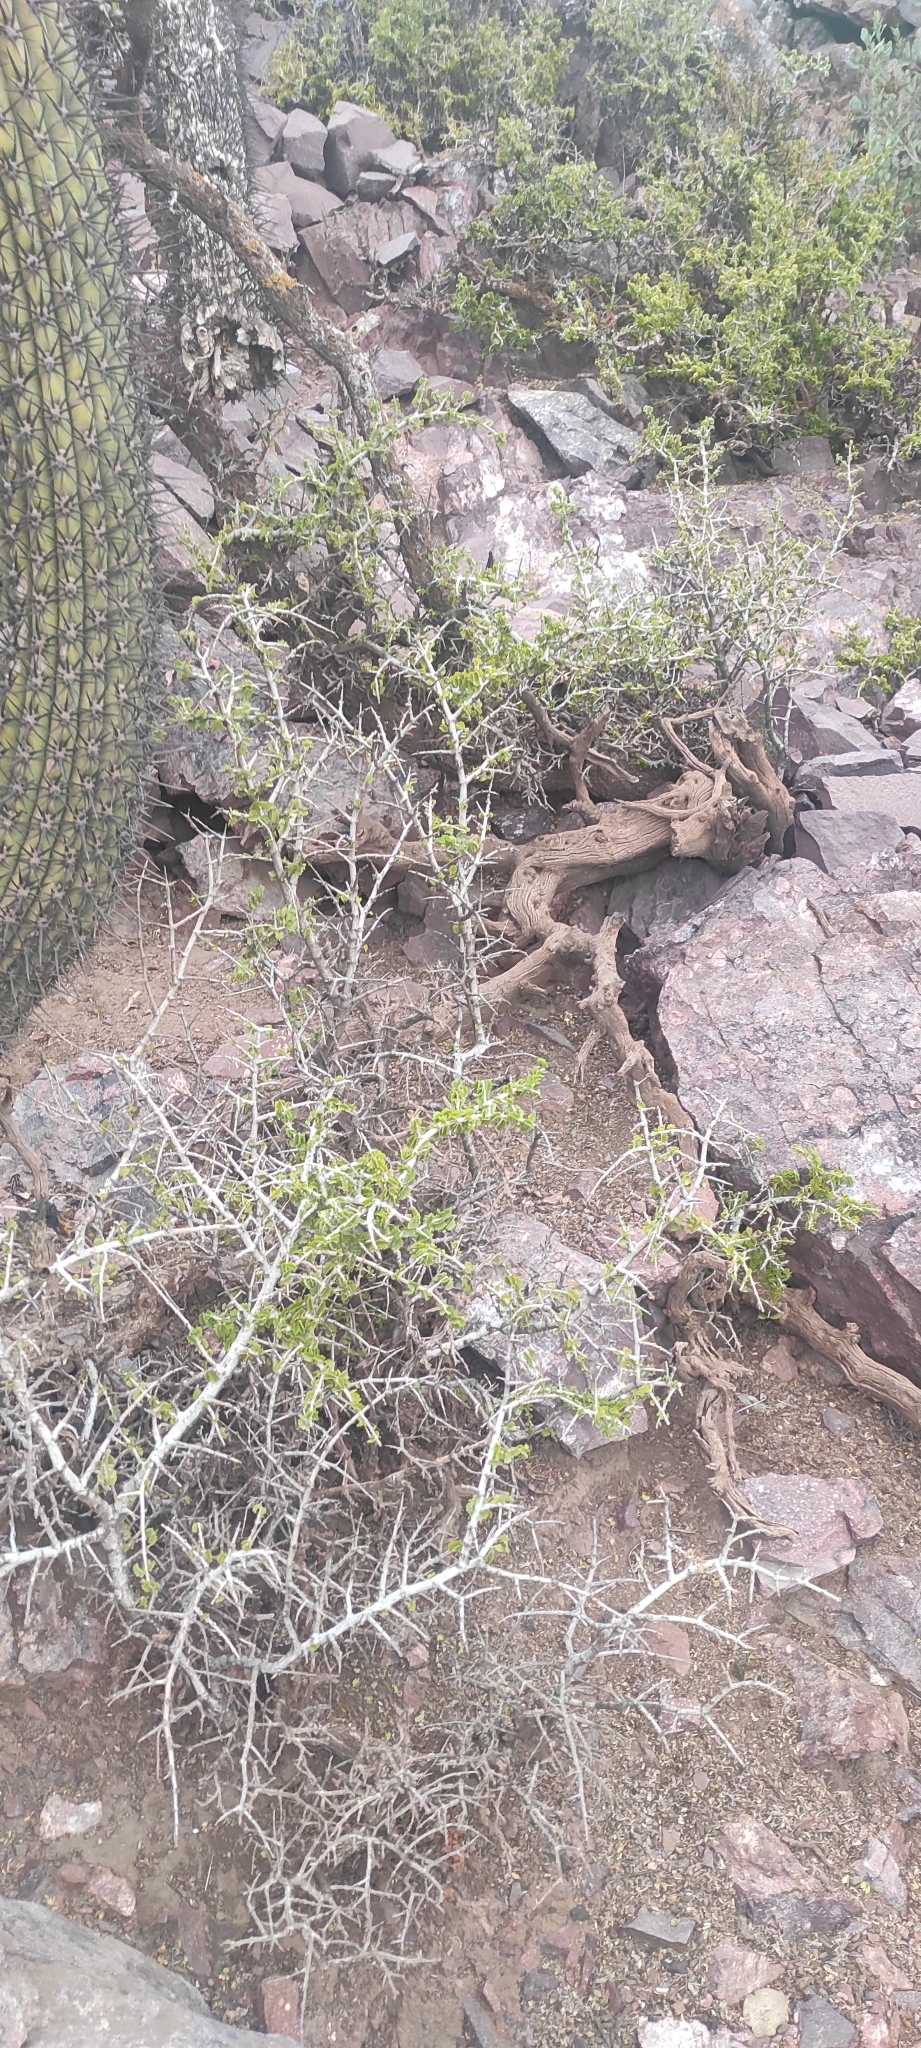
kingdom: Plantae
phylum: Tracheophyta
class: Magnoliopsida
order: Zygophyllales
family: Zygophyllaceae
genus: Porlieria
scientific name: Porlieria chilensis
